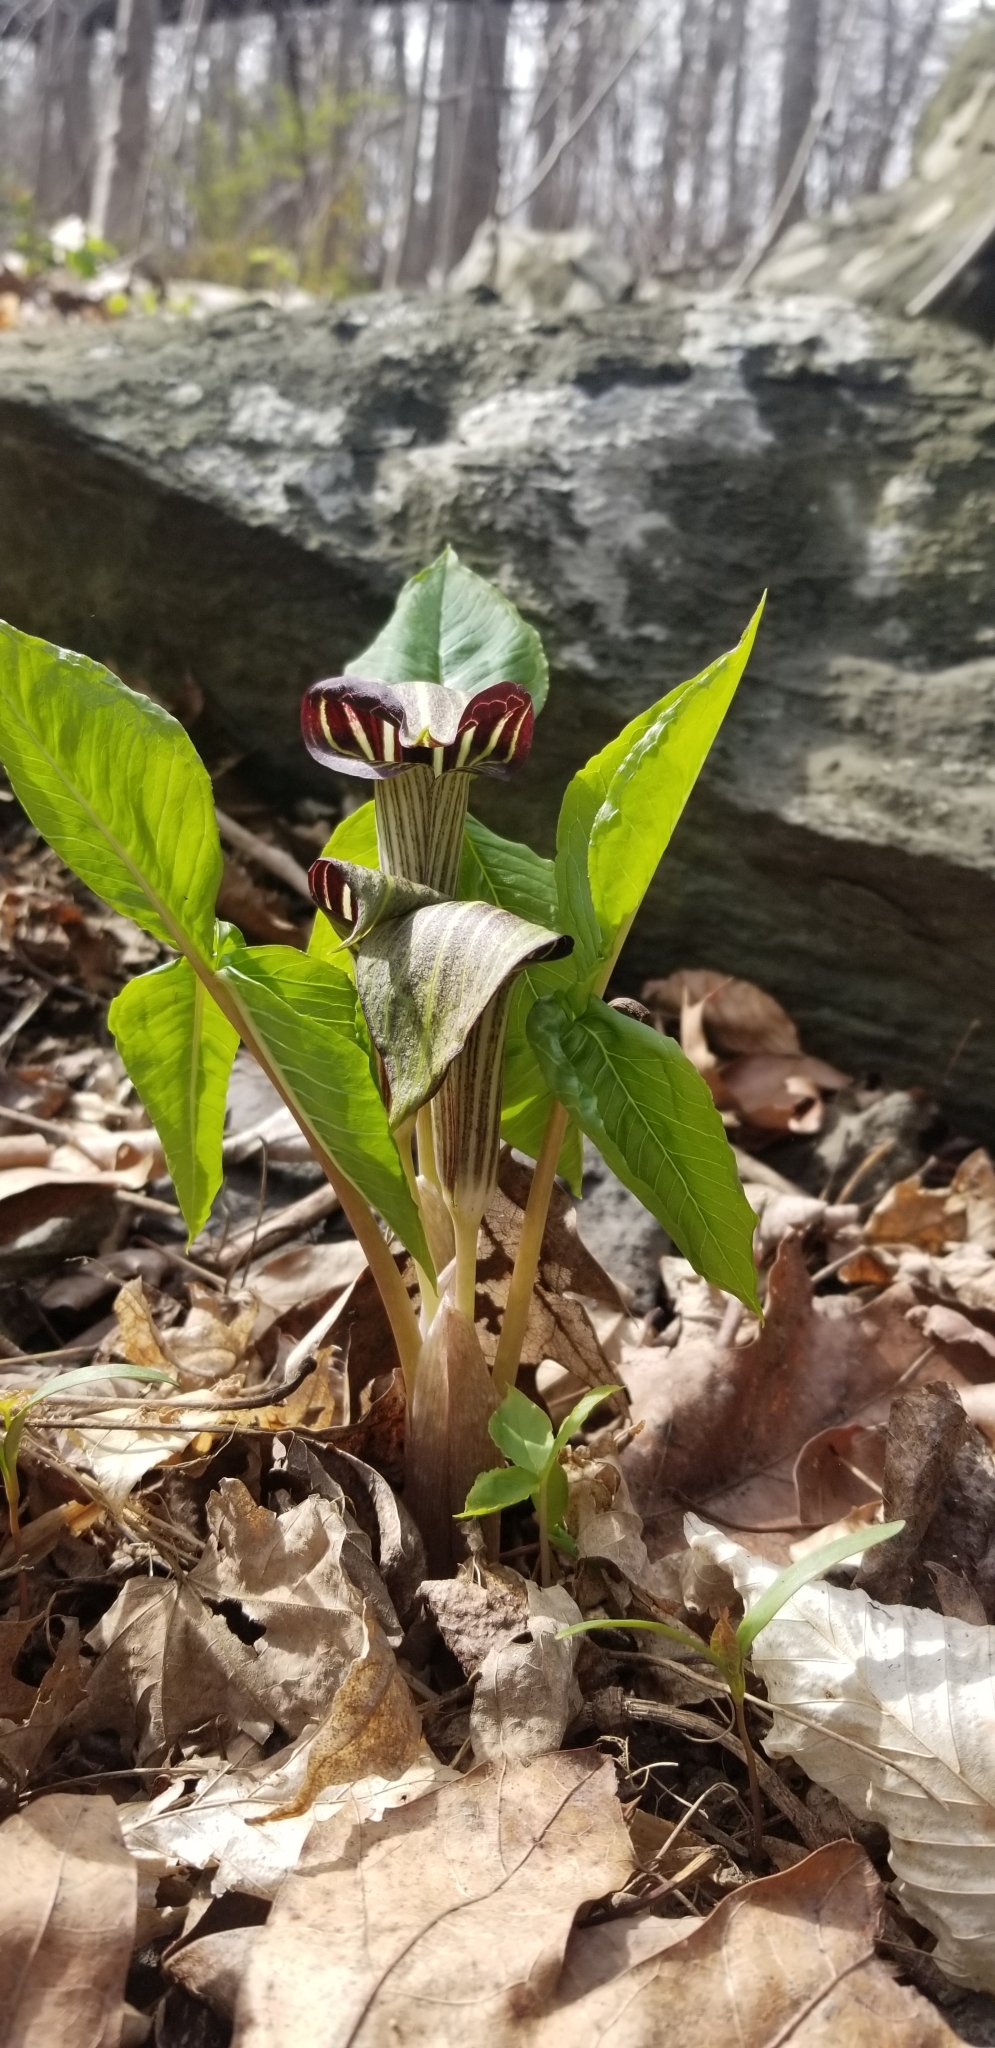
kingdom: Plantae
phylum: Tracheophyta
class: Liliopsida
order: Alismatales
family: Araceae
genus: Arisaema
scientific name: Arisaema triphyllum
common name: Jack-in-the-pulpit
